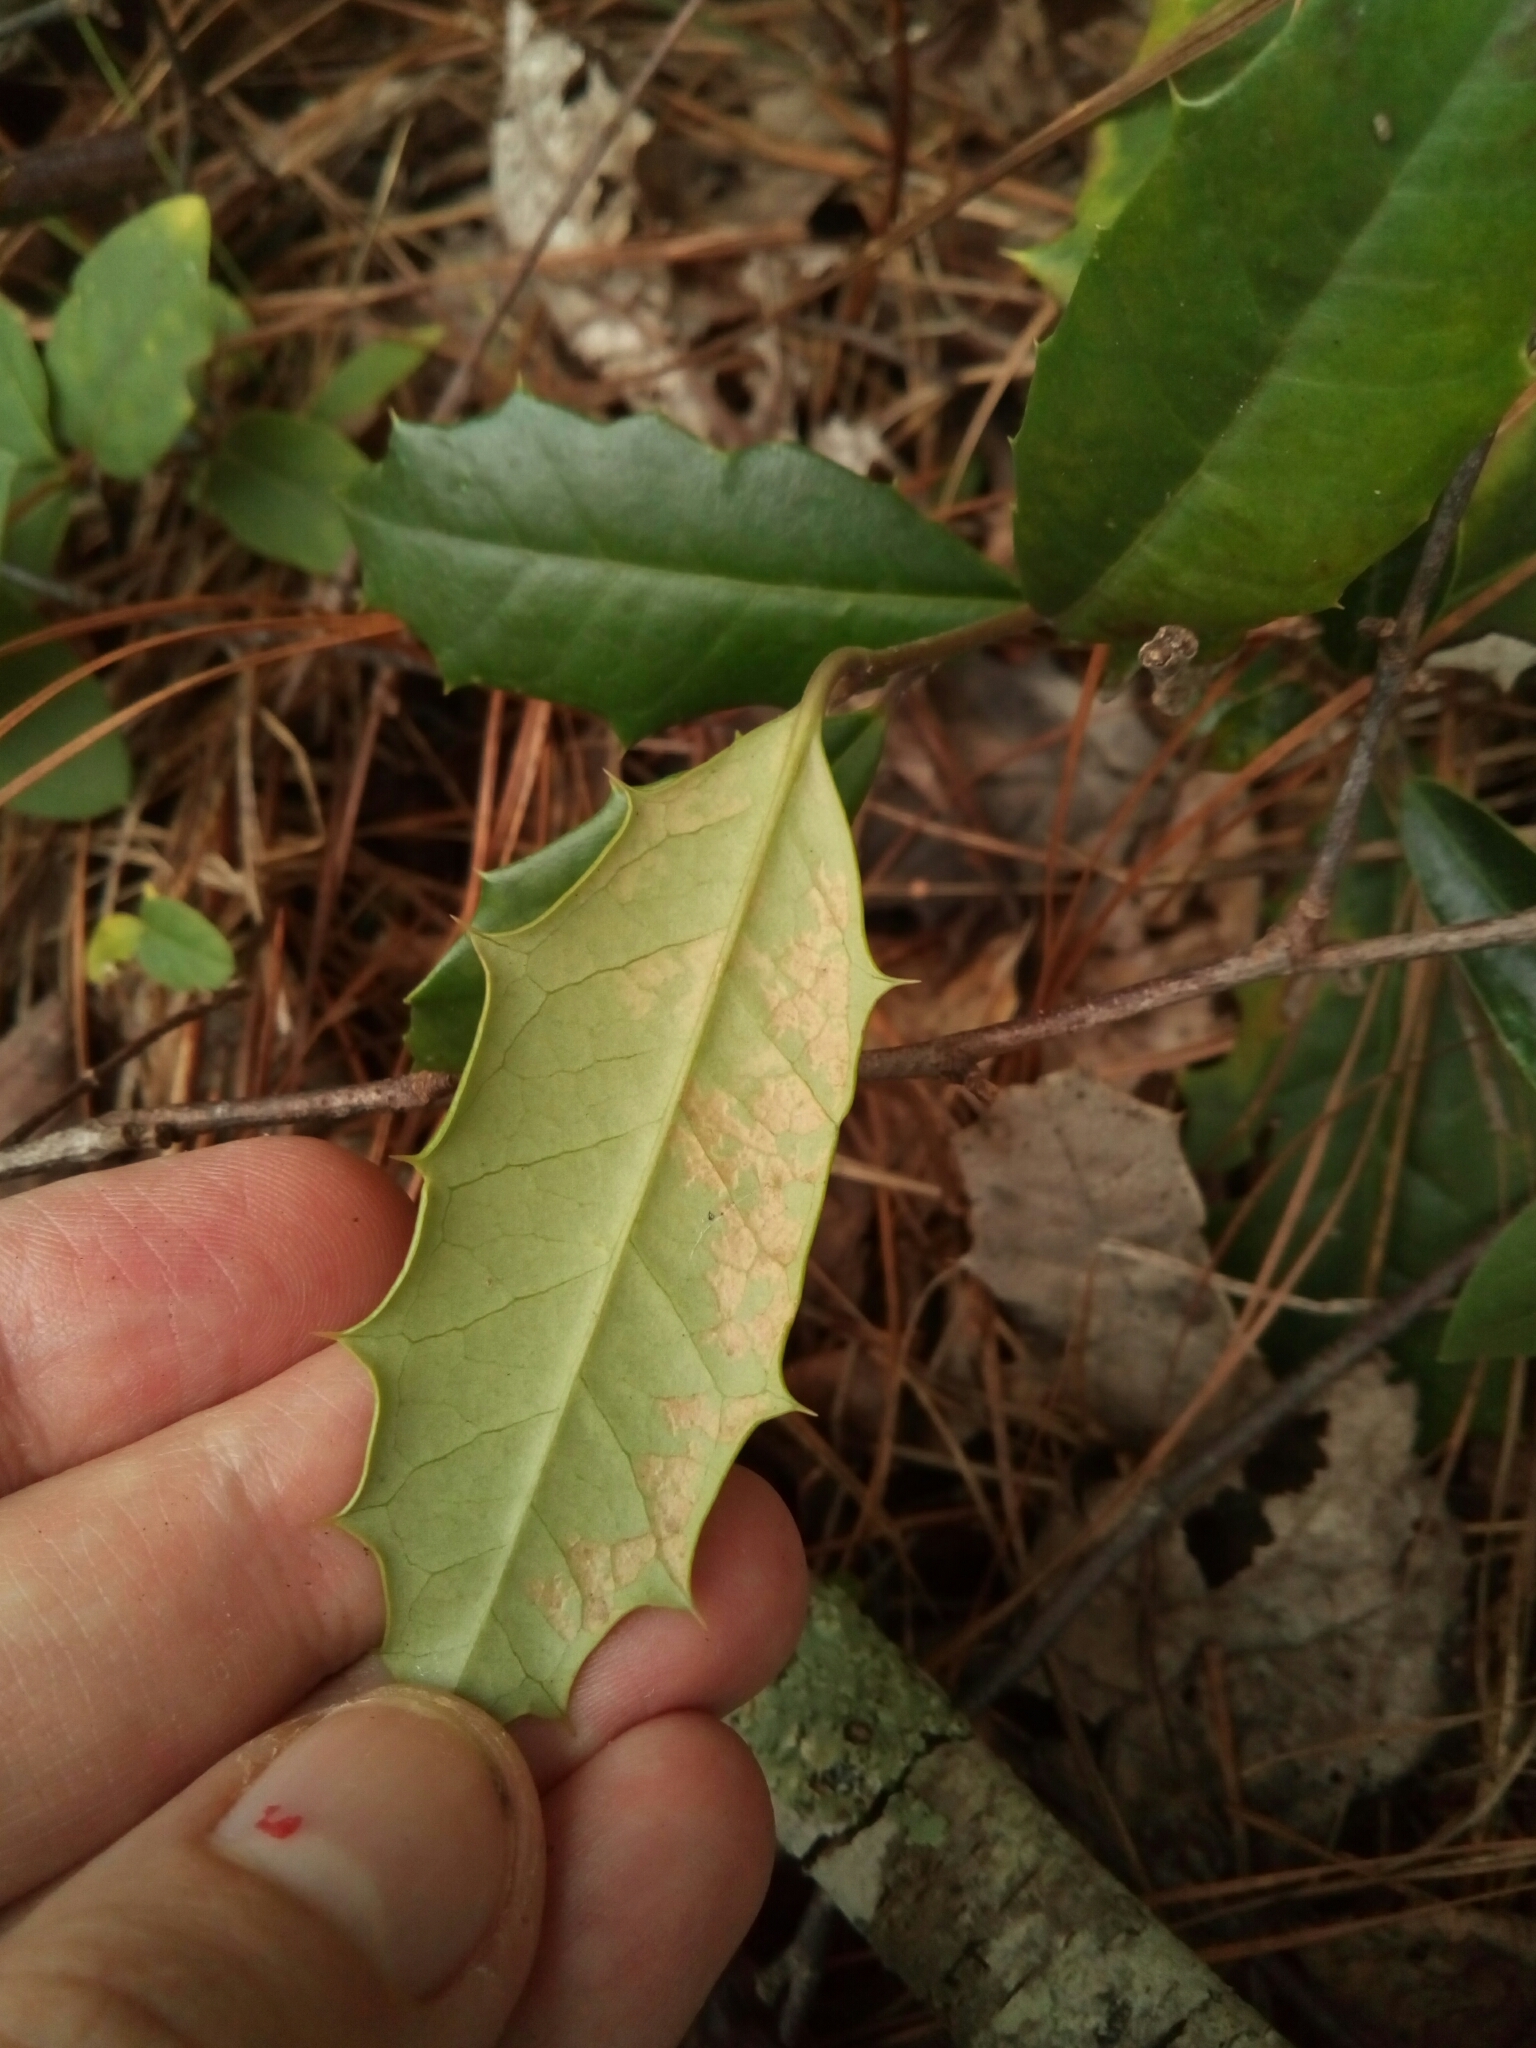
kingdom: Plantae
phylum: Tracheophyta
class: Magnoliopsida
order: Aquifoliales
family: Aquifoliaceae
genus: Ilex
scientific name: Ilex opaca
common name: American holly
